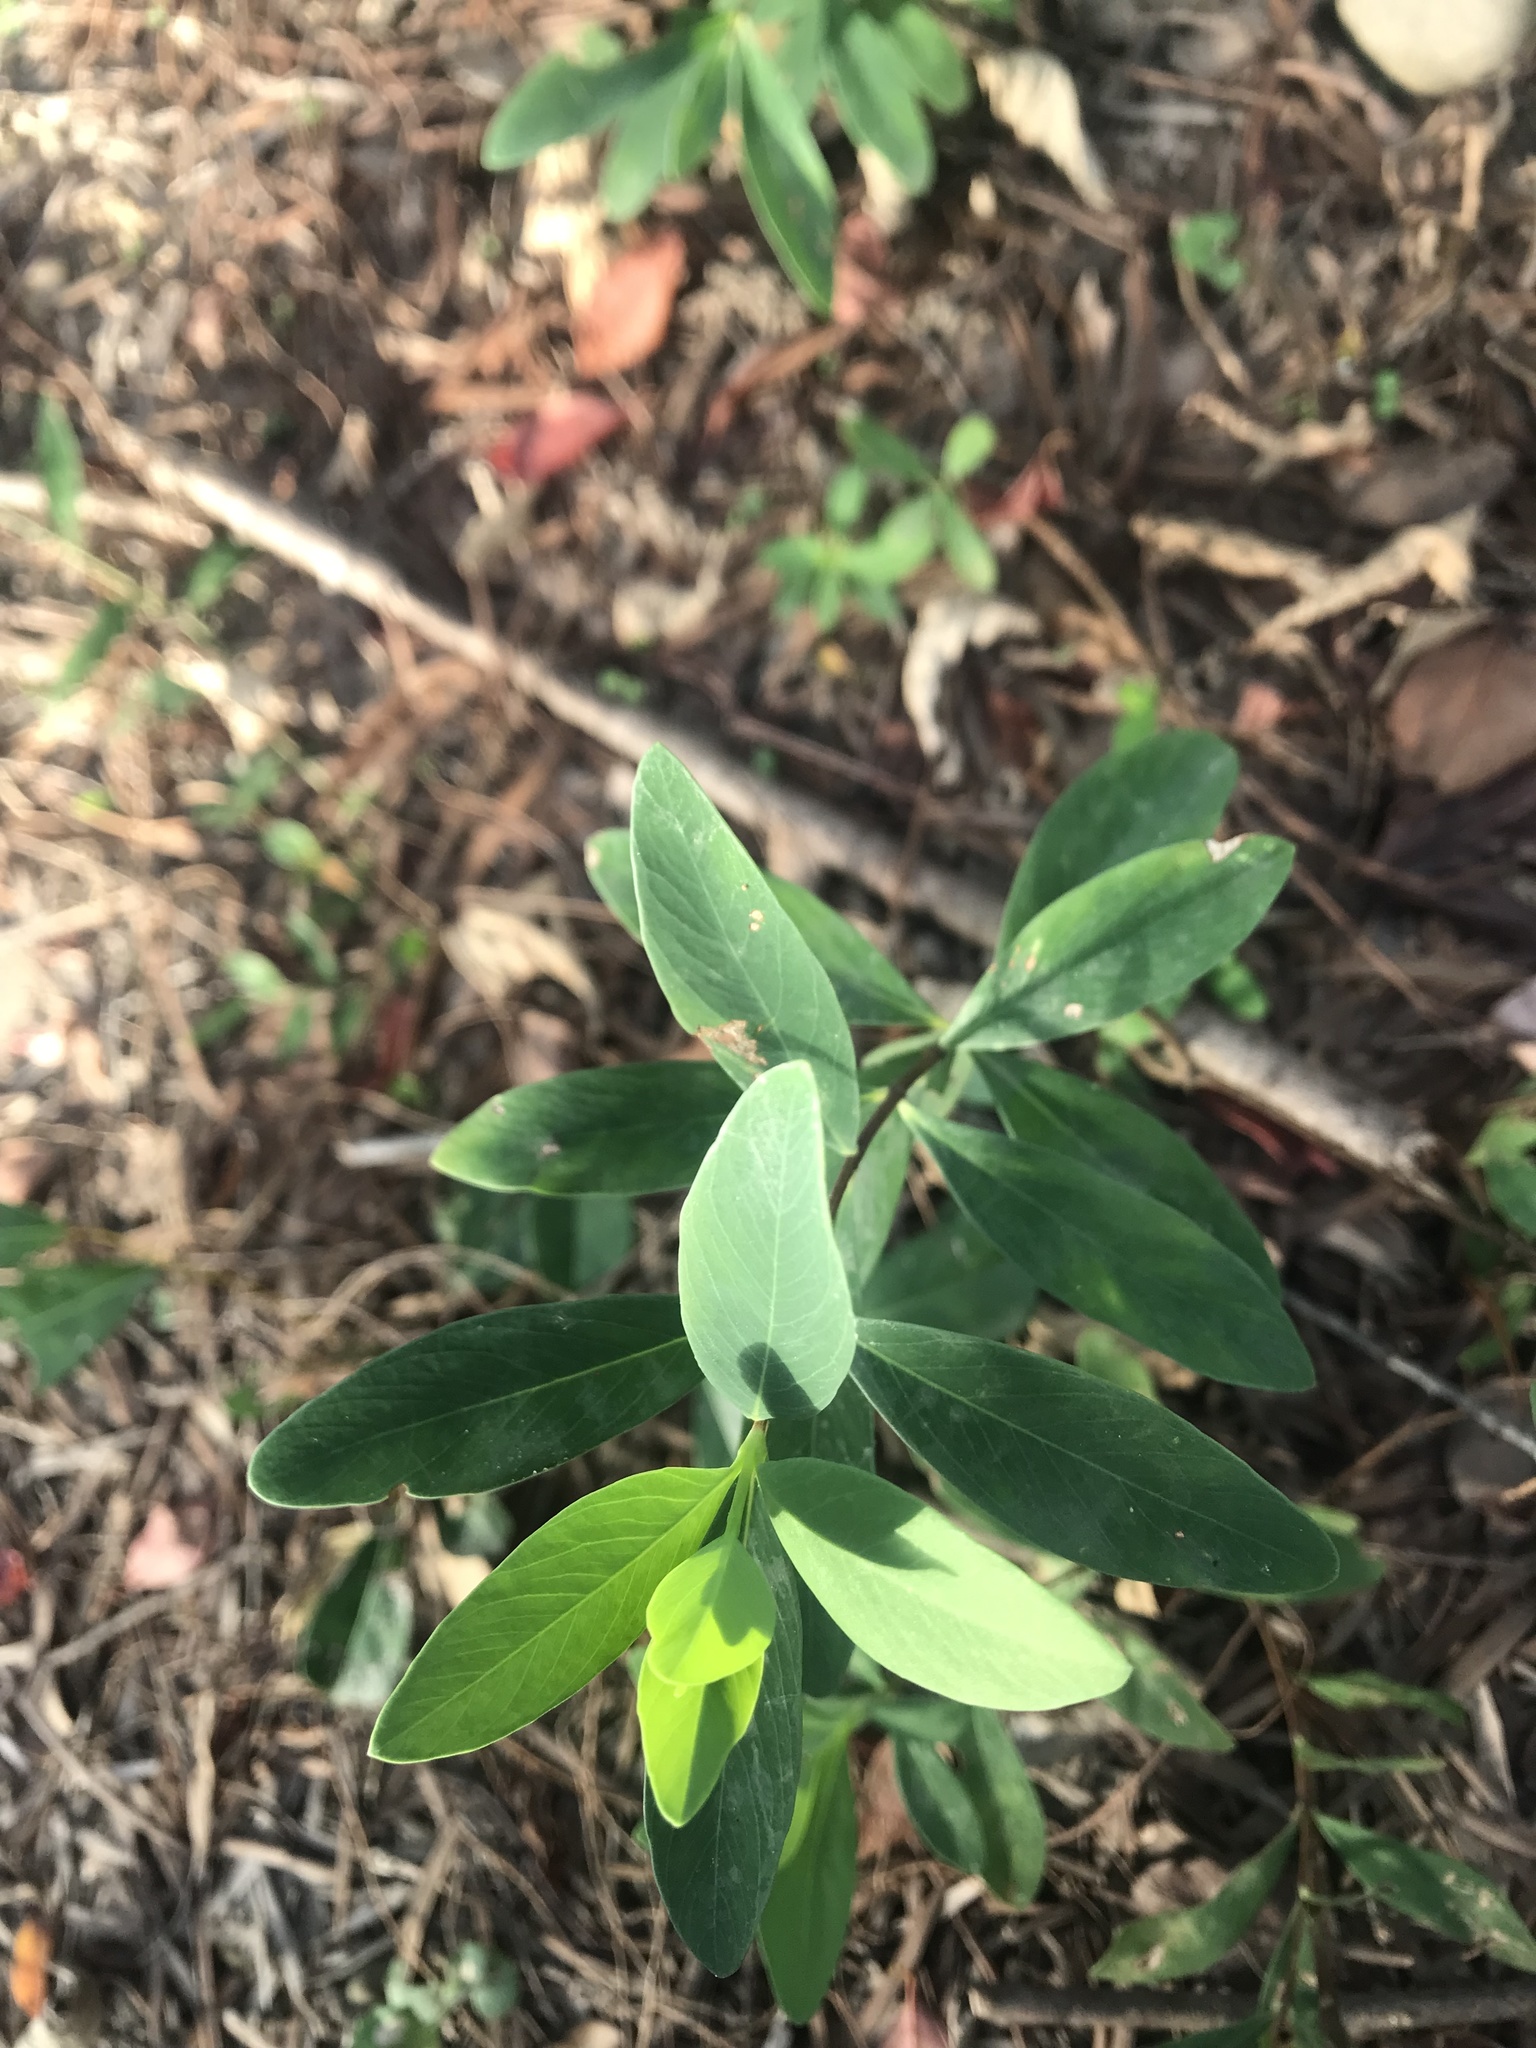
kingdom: Plantae
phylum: Tracheophyta
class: Magnoliopsida
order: Malvales
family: Thymelaeaceae
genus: Wikstroemia
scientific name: Wikstroemia indica
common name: Tiebush
